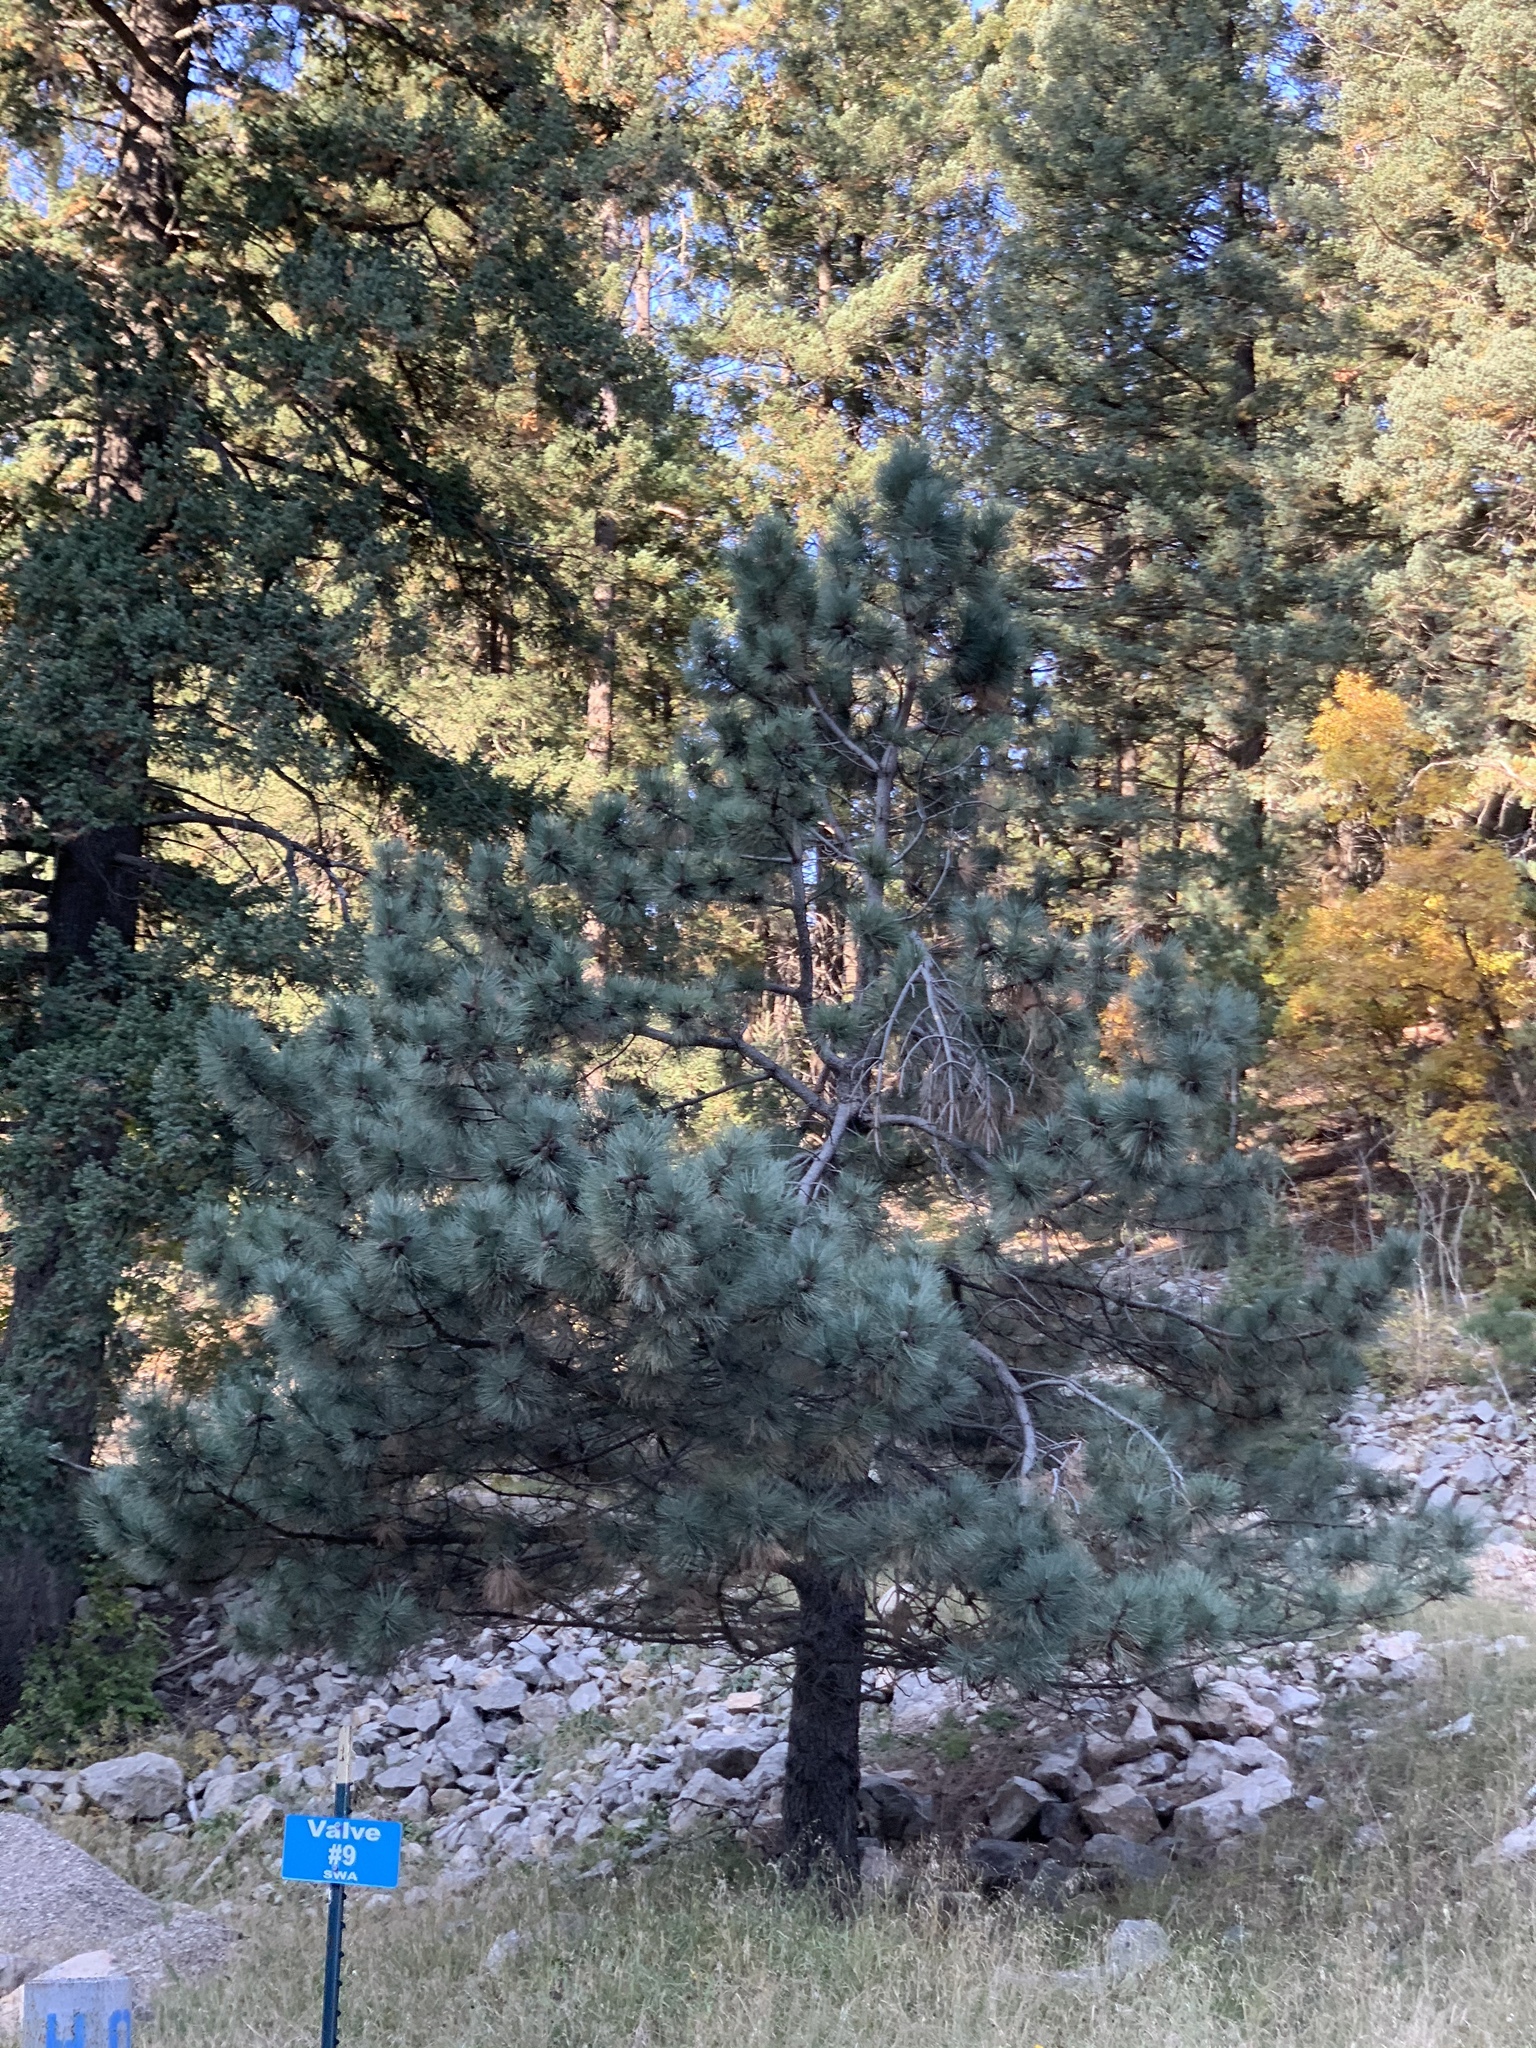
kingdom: Plantae
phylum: Tracheophyta
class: Pinopsida
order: Pinales
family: Pinaceae
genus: Pinus
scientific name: Pinus ponderosa
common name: Western yellow-pine
